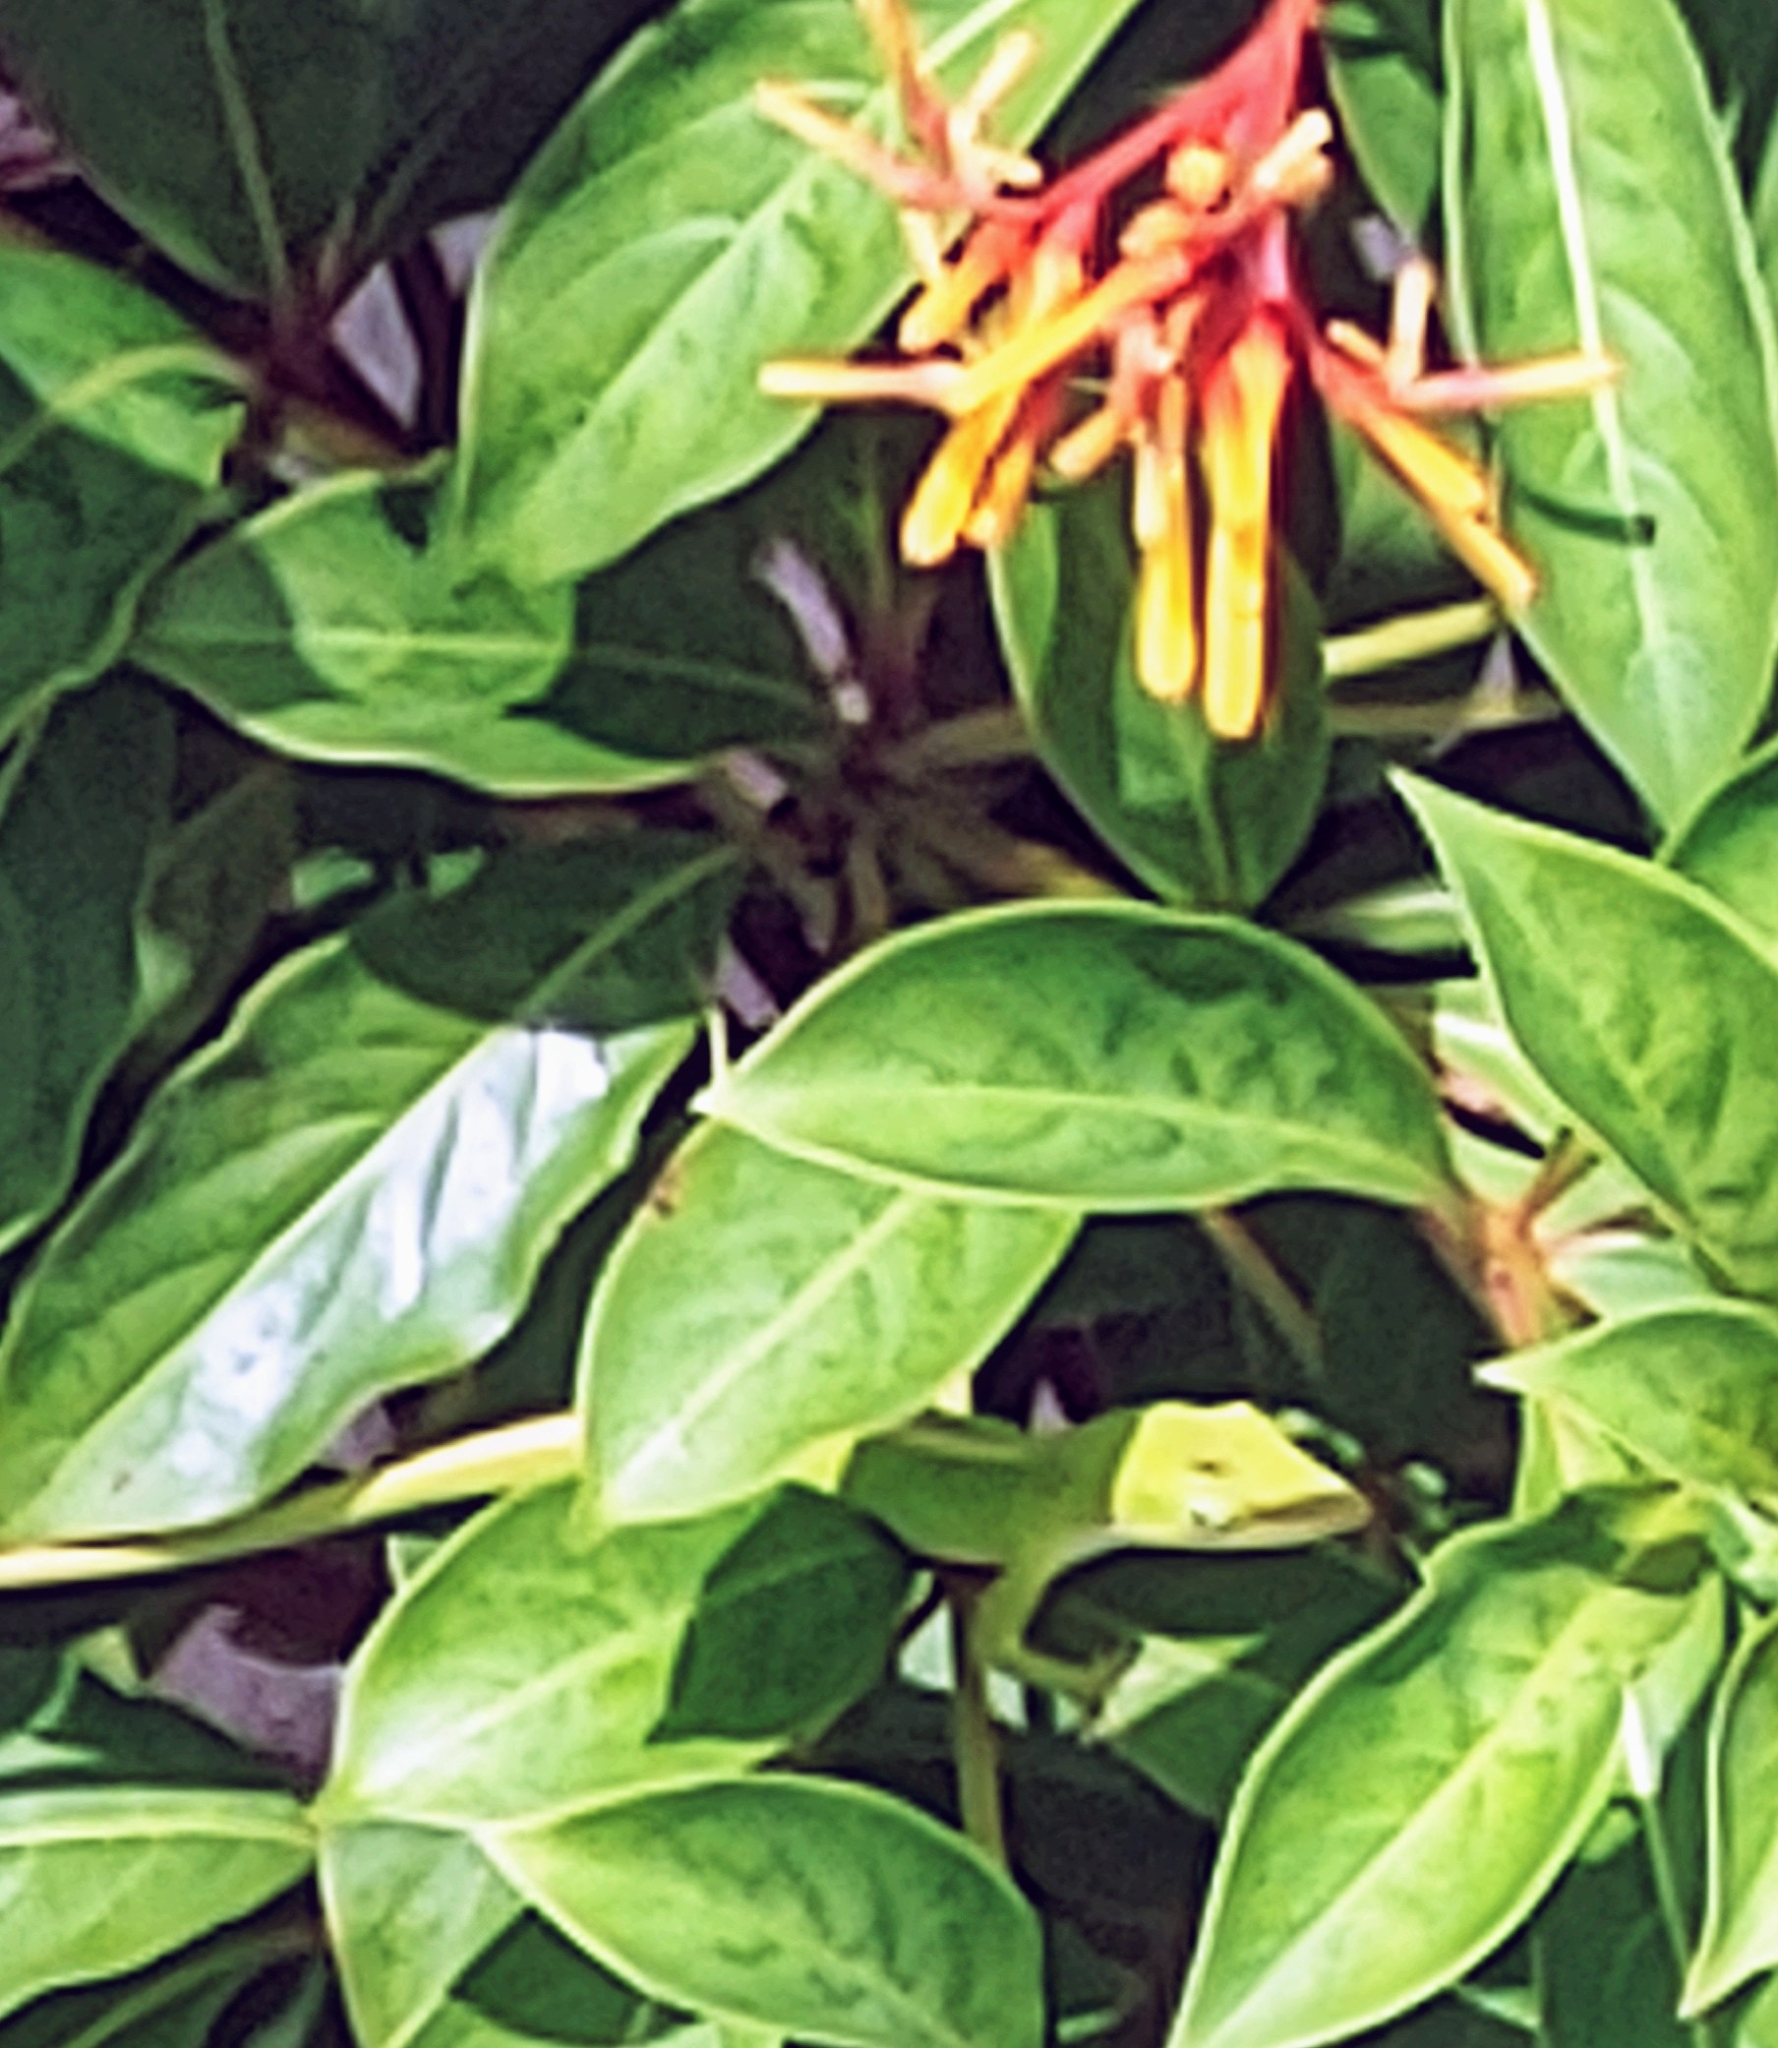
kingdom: Animalia
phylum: Chordata
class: Squamata
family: Dactyloidae
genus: Anolis
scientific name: Anolis carolinensis
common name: Green anole
